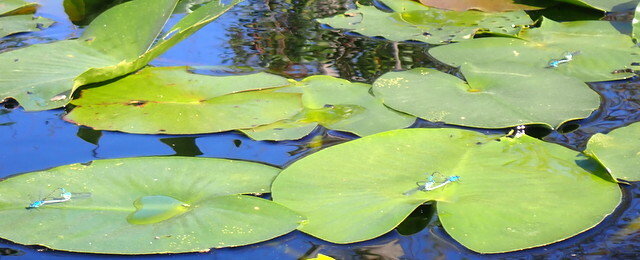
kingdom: Animalia
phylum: Arthropoda
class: Insecta
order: Odonata
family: Coenagrionidae
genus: Ischnura
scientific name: Ischnura kellicotti
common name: Lilypad forktail
